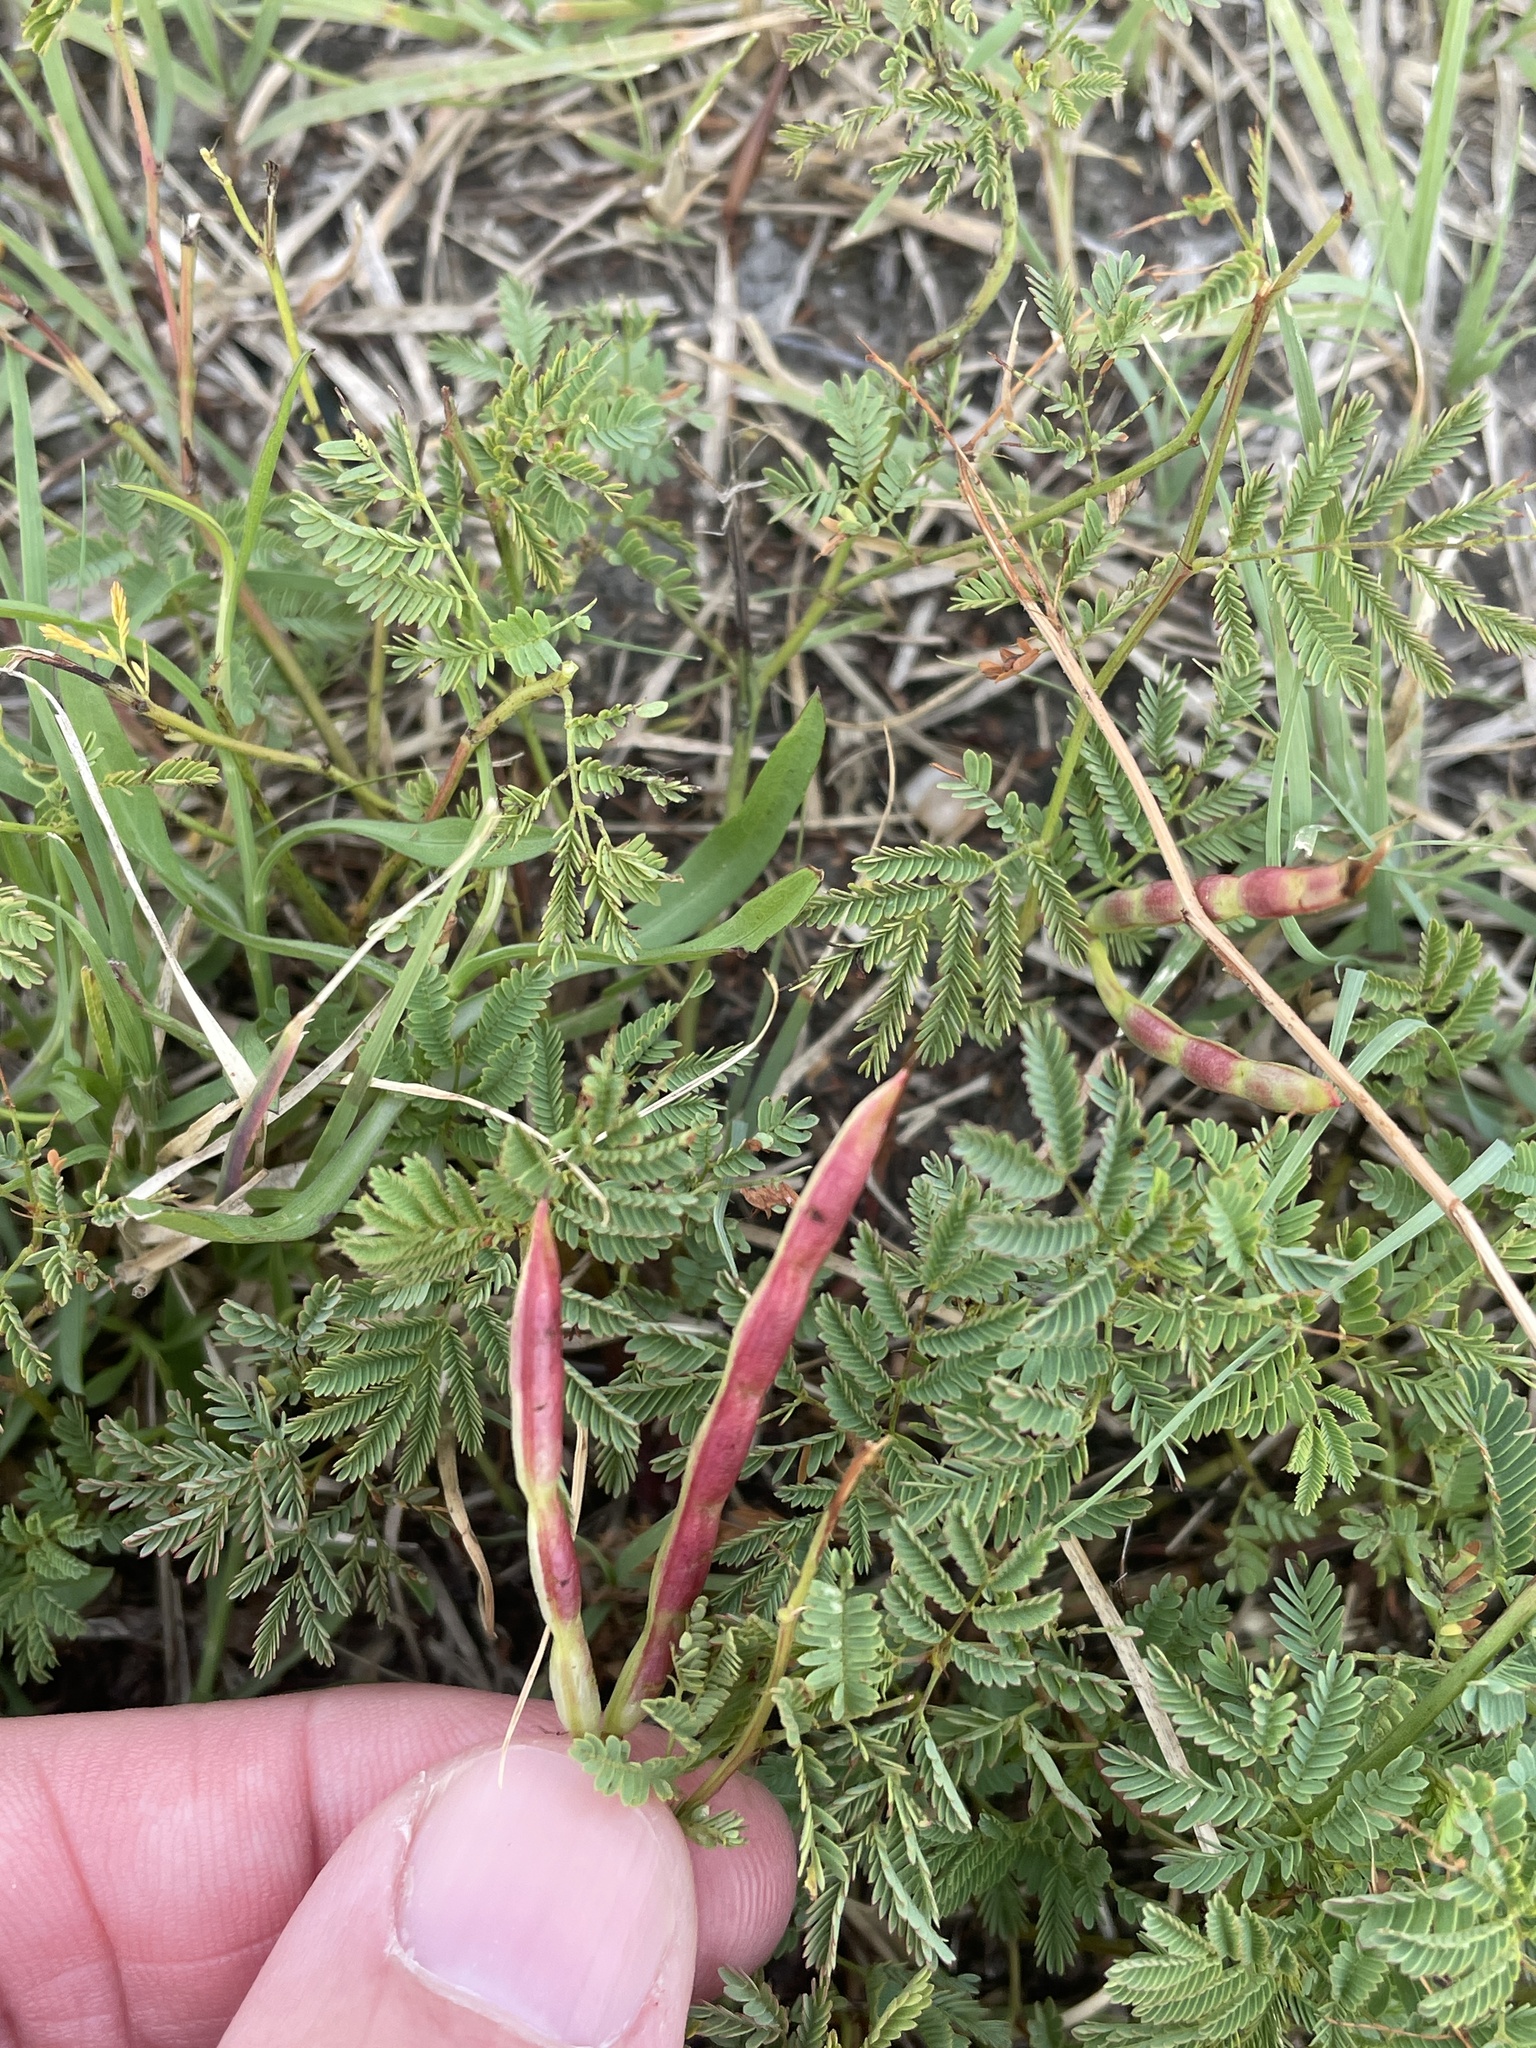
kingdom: Plantae
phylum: Tracheophyta
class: Magnoliopsida
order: Fabales
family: Fabaceae
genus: Desmanthus
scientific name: Desmanthus leptolobus
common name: Prairie-mimosa
